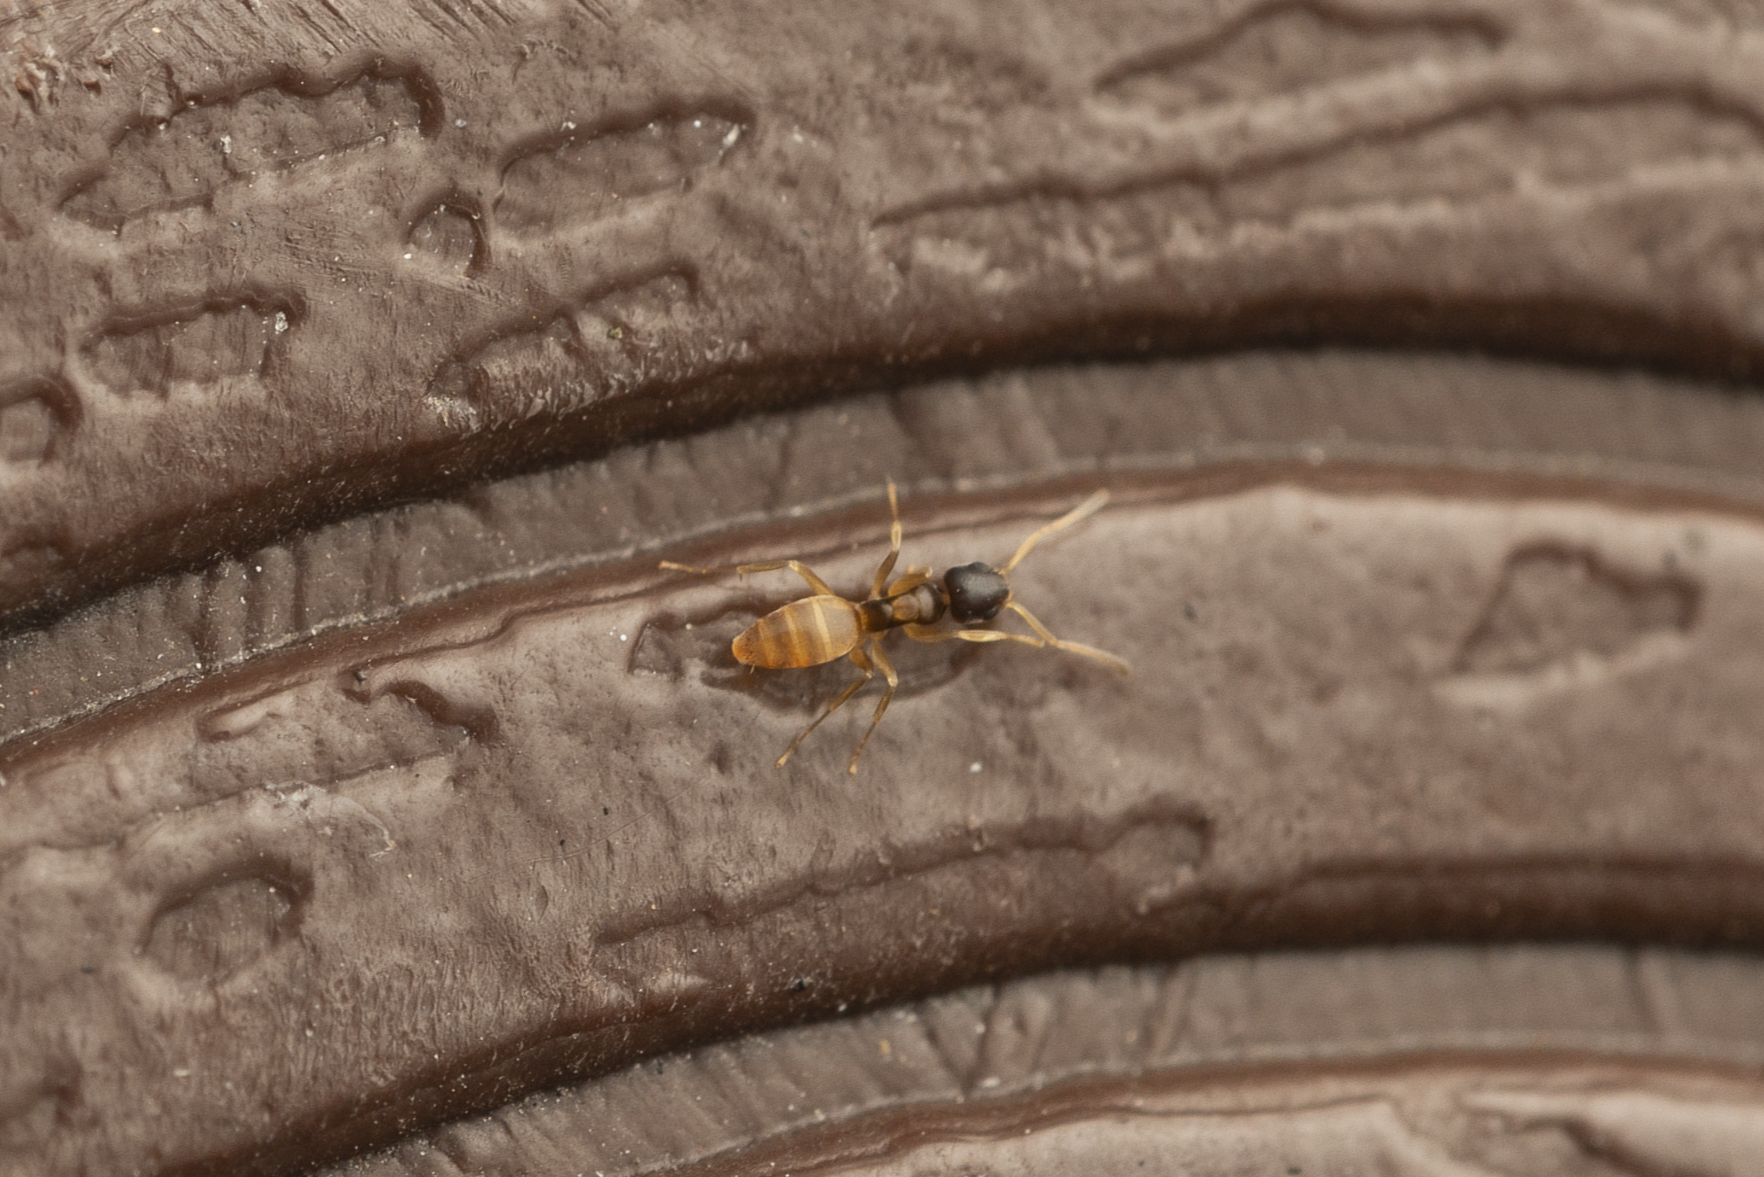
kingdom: Animalia
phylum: Arthropoda
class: Insecta
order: Hymenoptera
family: Formicidae
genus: Tapinoma
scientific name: Tapinoma melanocephalum
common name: Ghost ant
